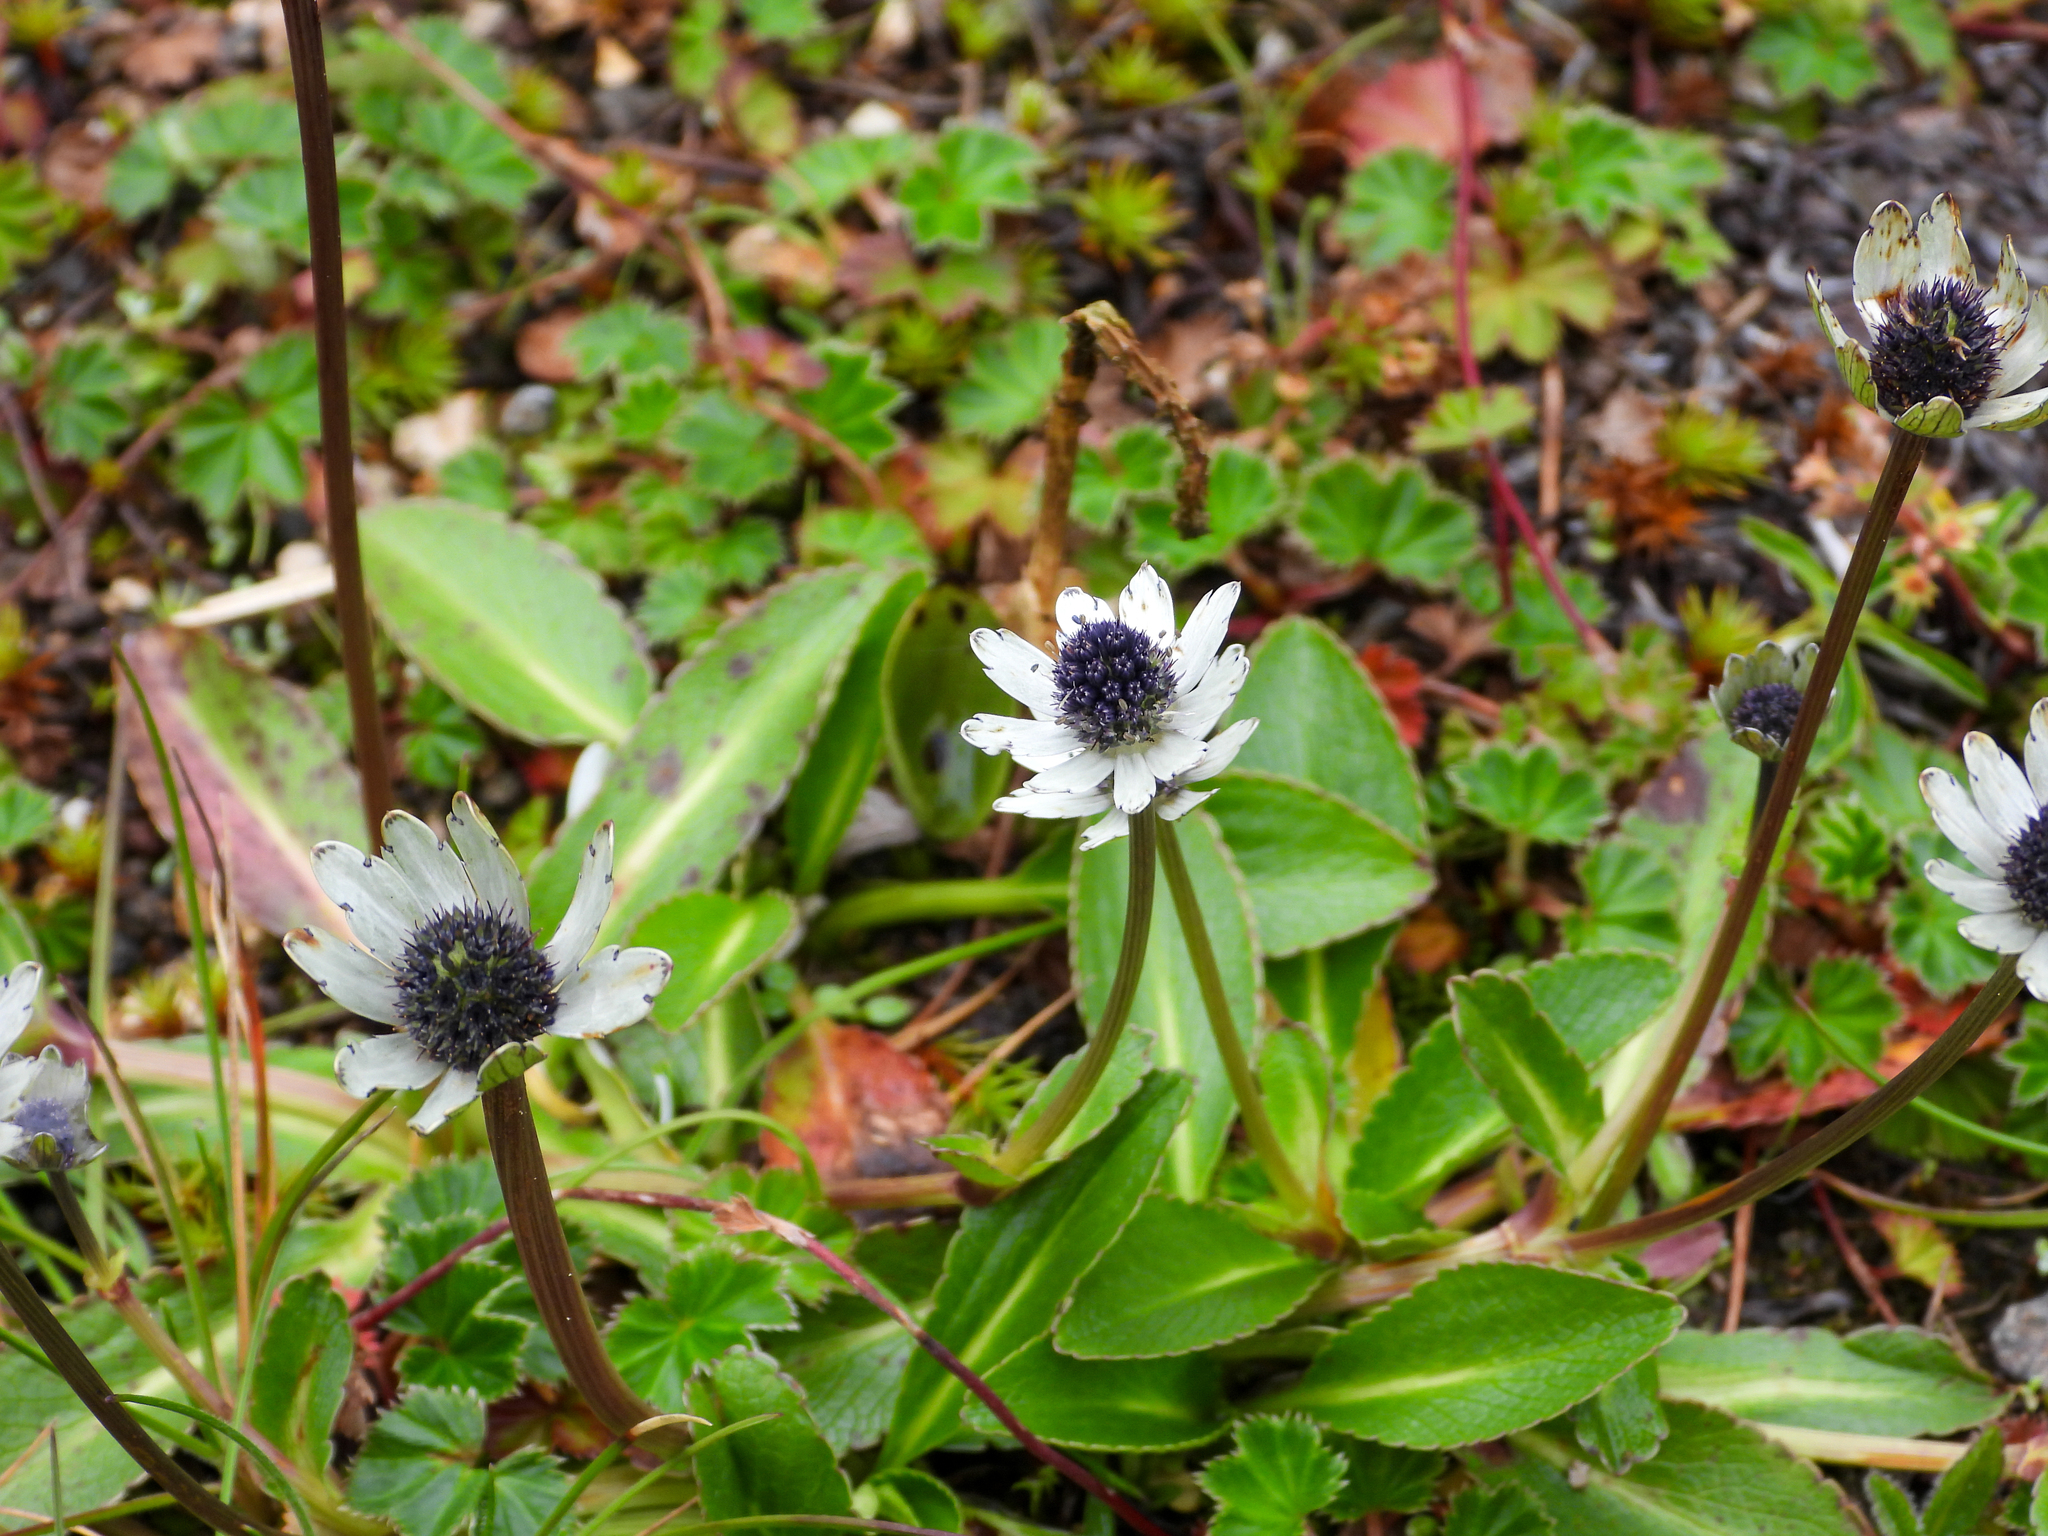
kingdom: Plantae
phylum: Tracheophyta
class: Magnoliopsida
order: Apiales
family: Apiaceae
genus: Eryngium
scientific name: Eryngium humile
